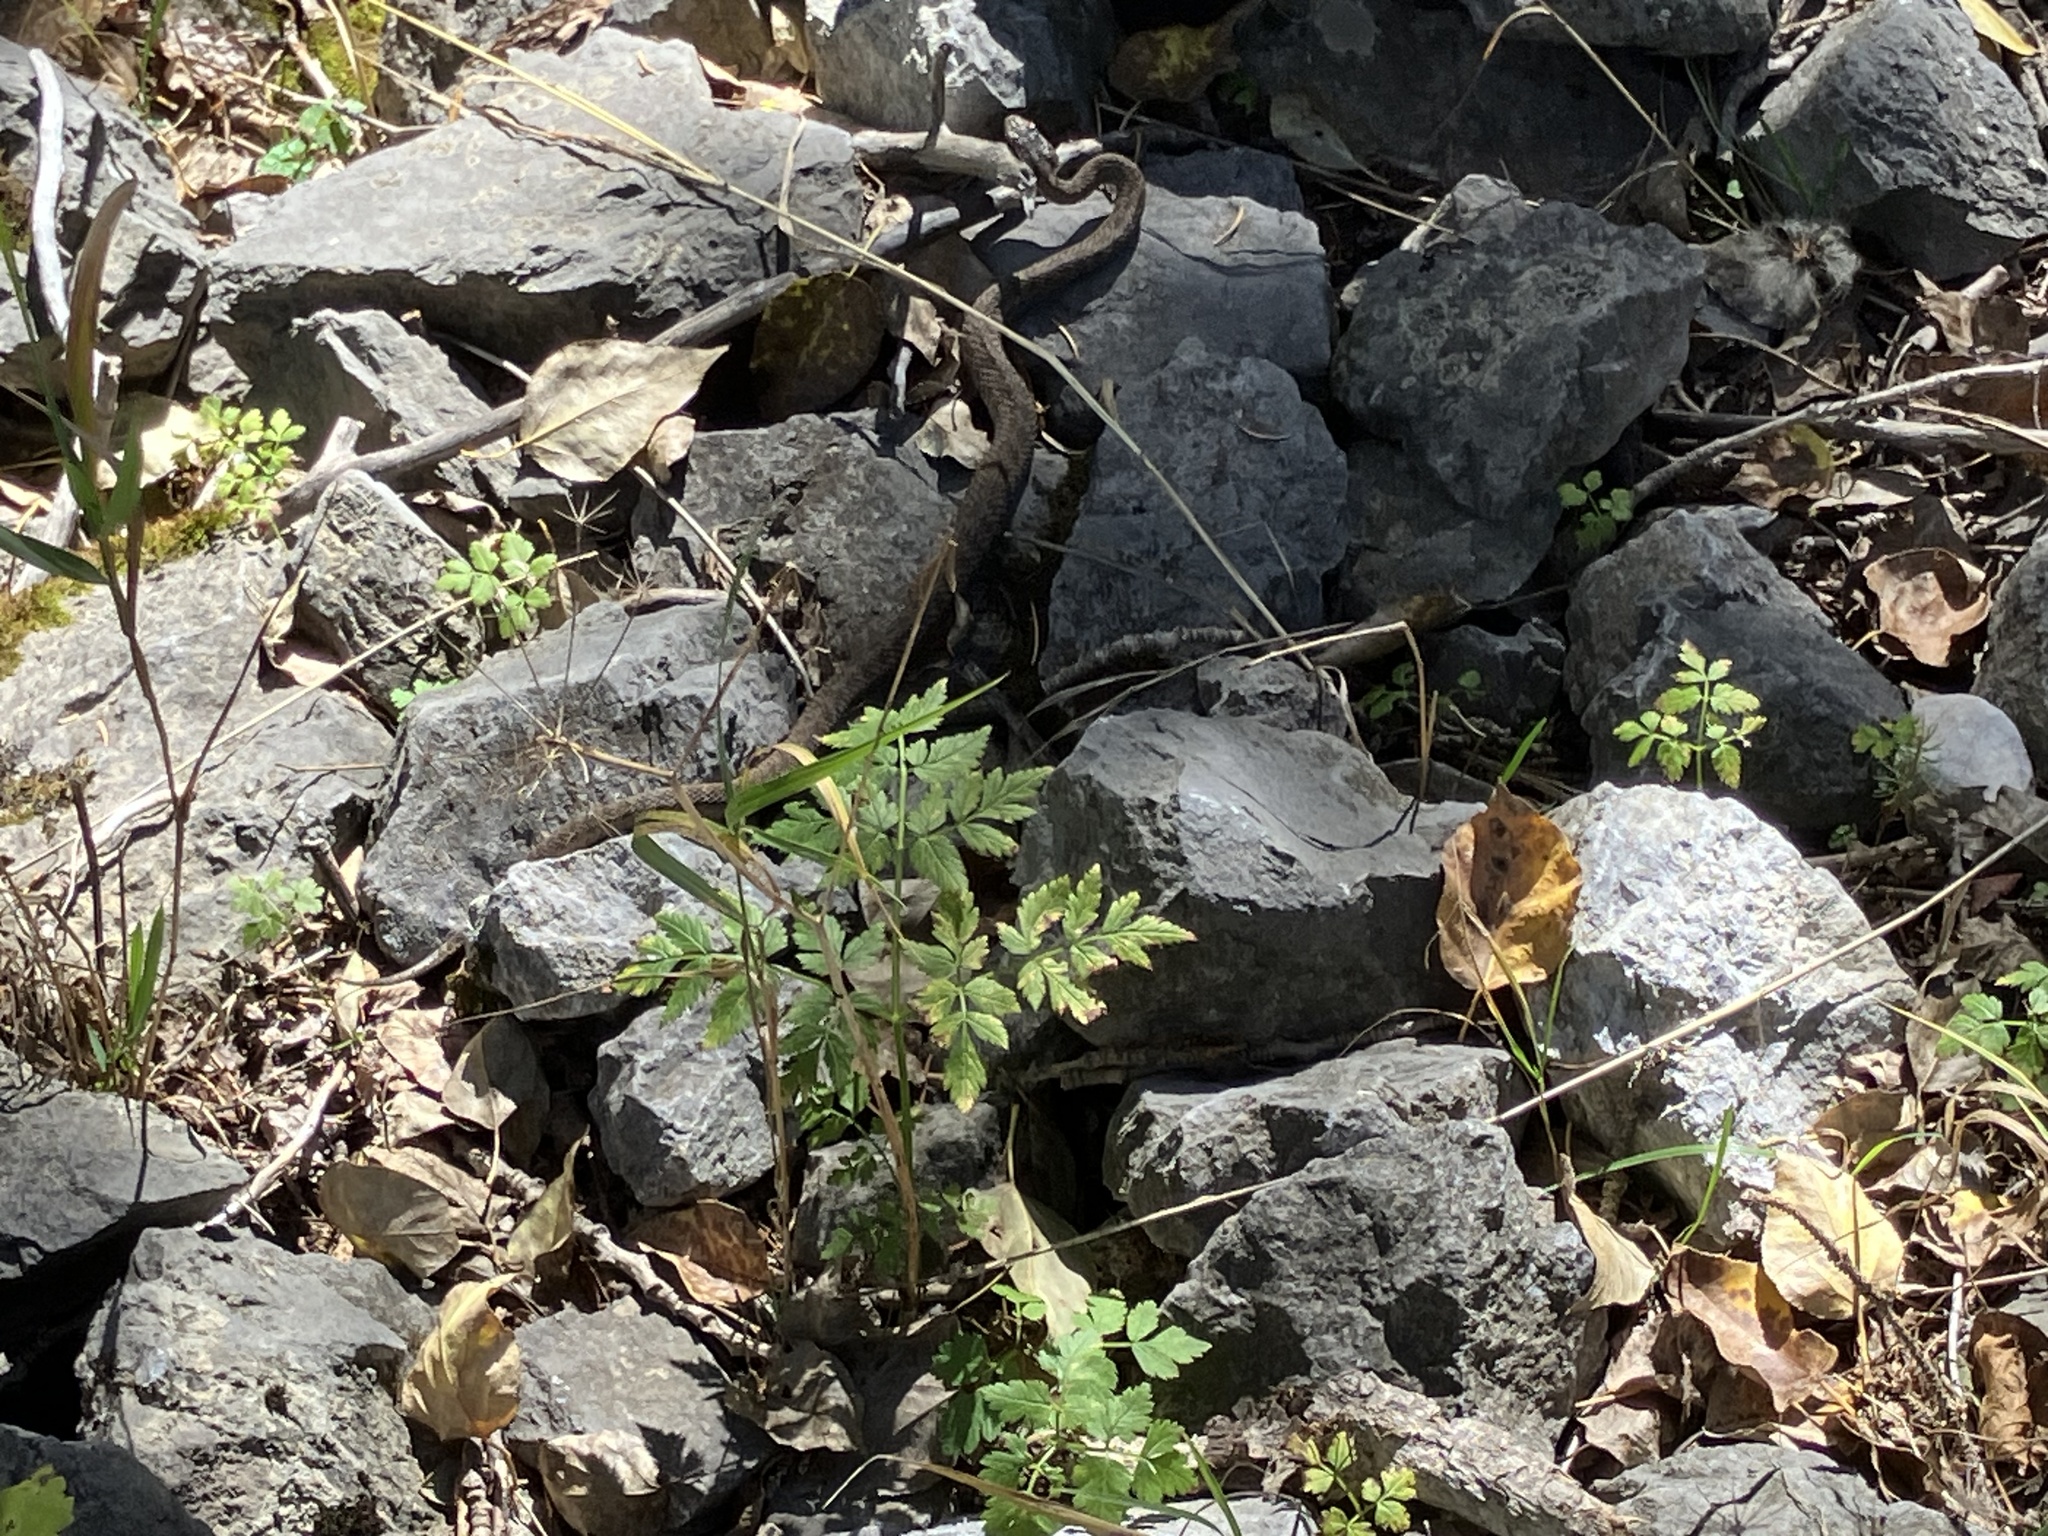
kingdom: Animalia
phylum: Chordata
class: Squamata
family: Viperidae
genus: Gloydius
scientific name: Gloydius halys
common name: Halys pit viper
